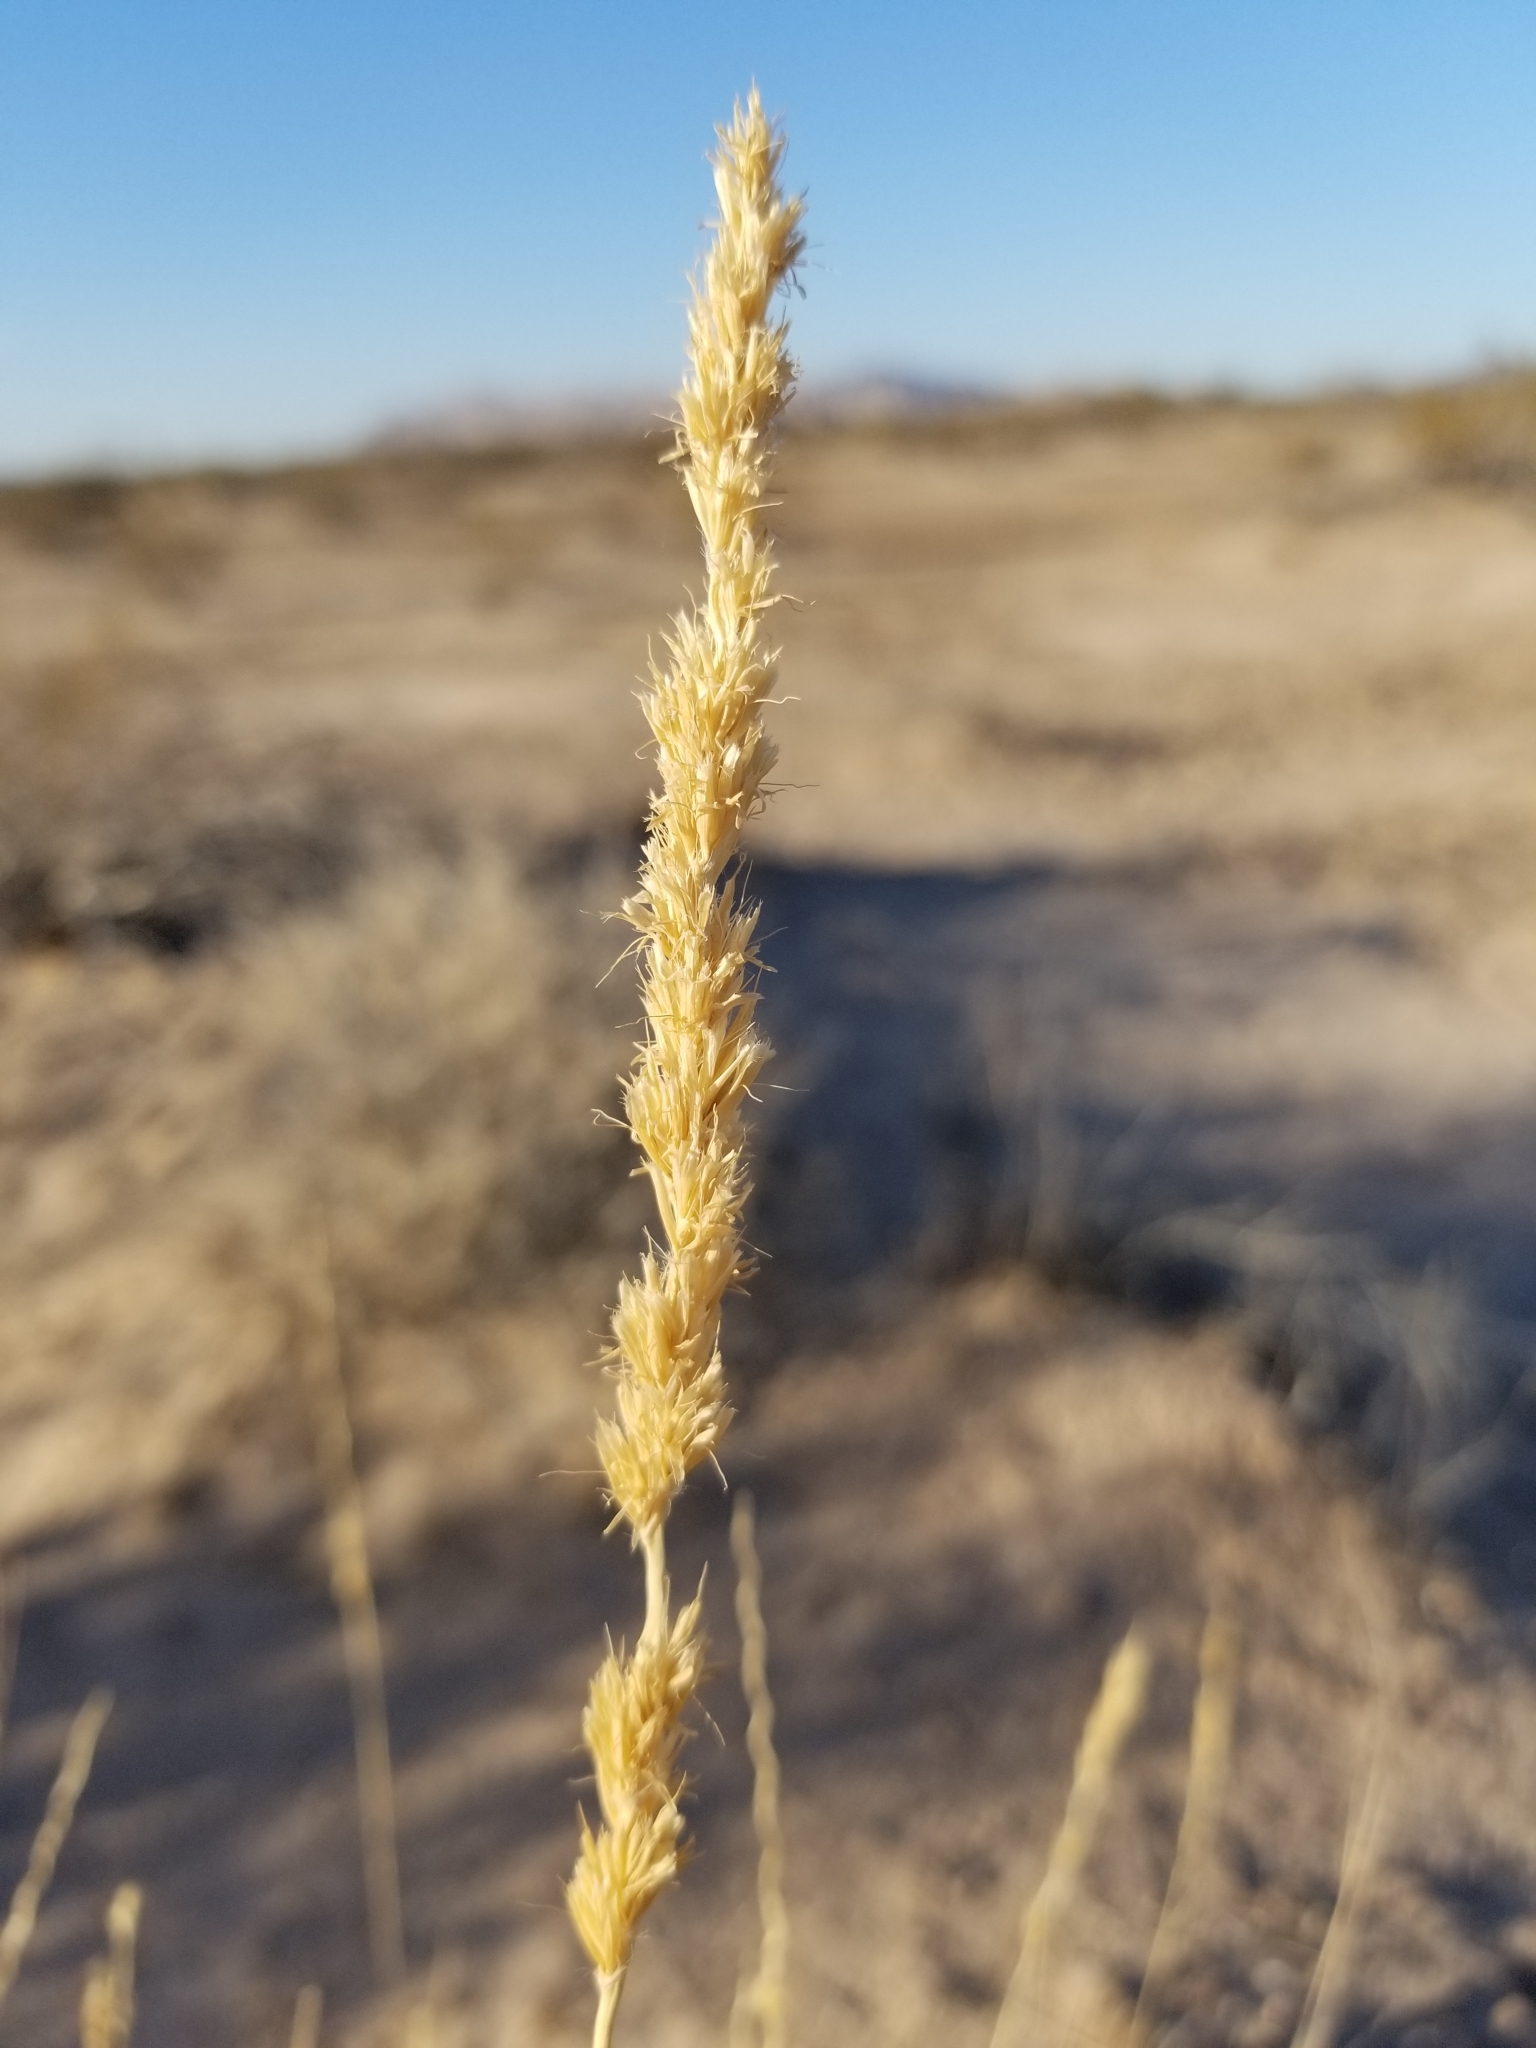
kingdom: Plantae
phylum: Tracheophyta
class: Liliopsida
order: Poales
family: Poaceae
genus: Hilaria
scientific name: Hilaria rigida
